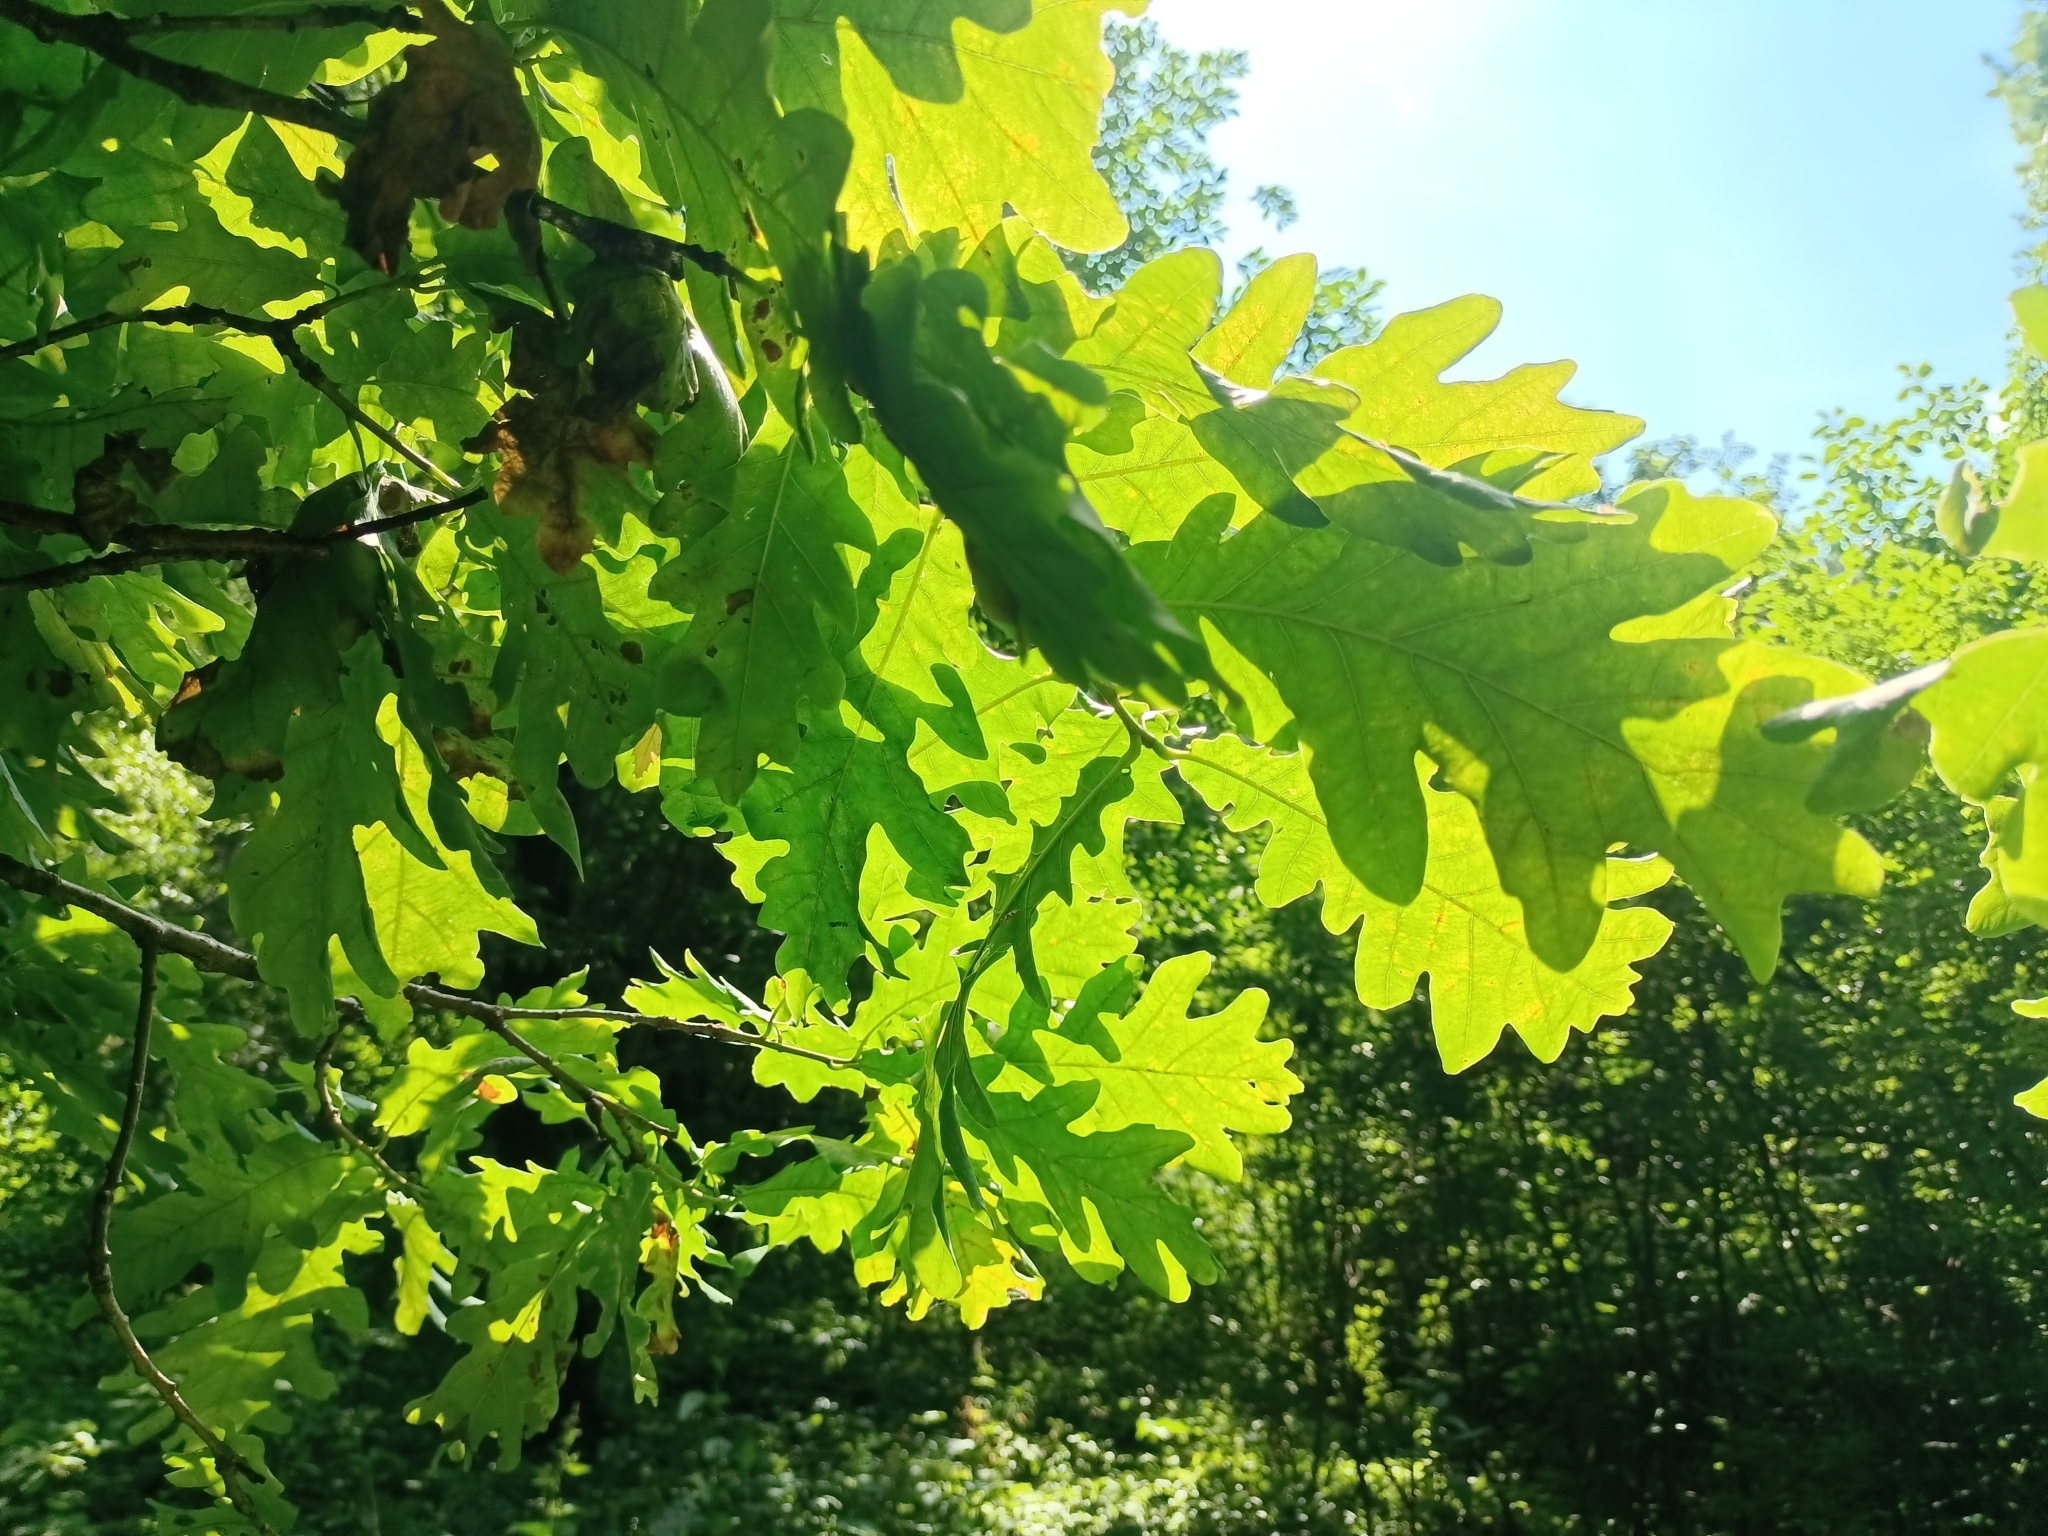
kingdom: Plantae
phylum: Tracheophyta
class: Magnoliopsida
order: Fagales
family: Fagaceae
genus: Quercus
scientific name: Quercus robur
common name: Pedunculate oak
